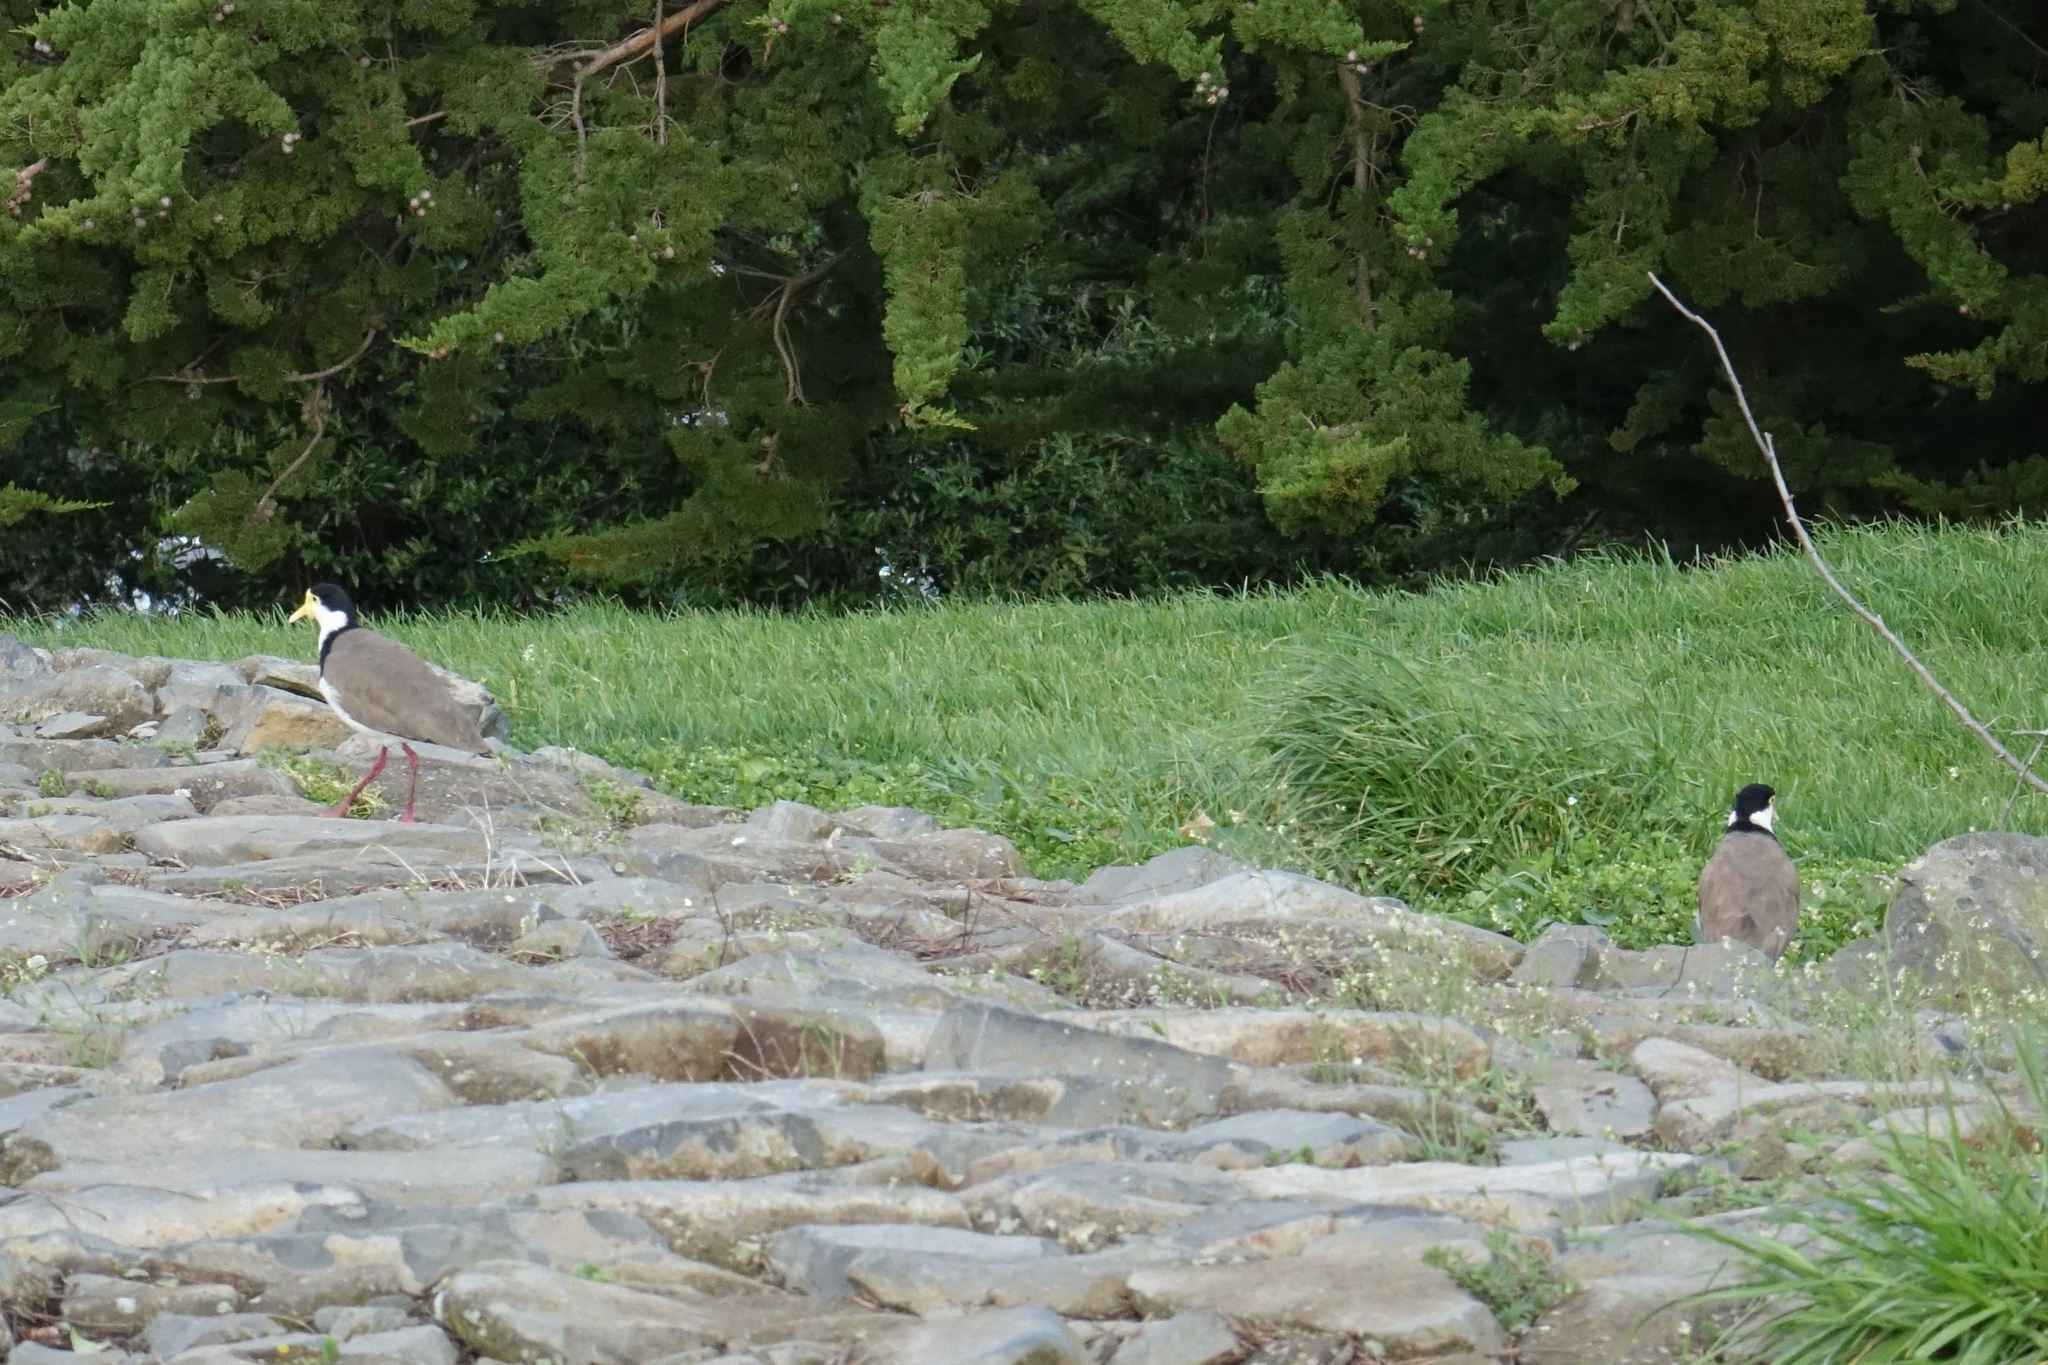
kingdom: Animalia
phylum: Chordata
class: Aves
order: Charadriiformes
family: Charadriidae
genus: Vanellus
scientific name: Vanellus miles
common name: Masked lapwing
